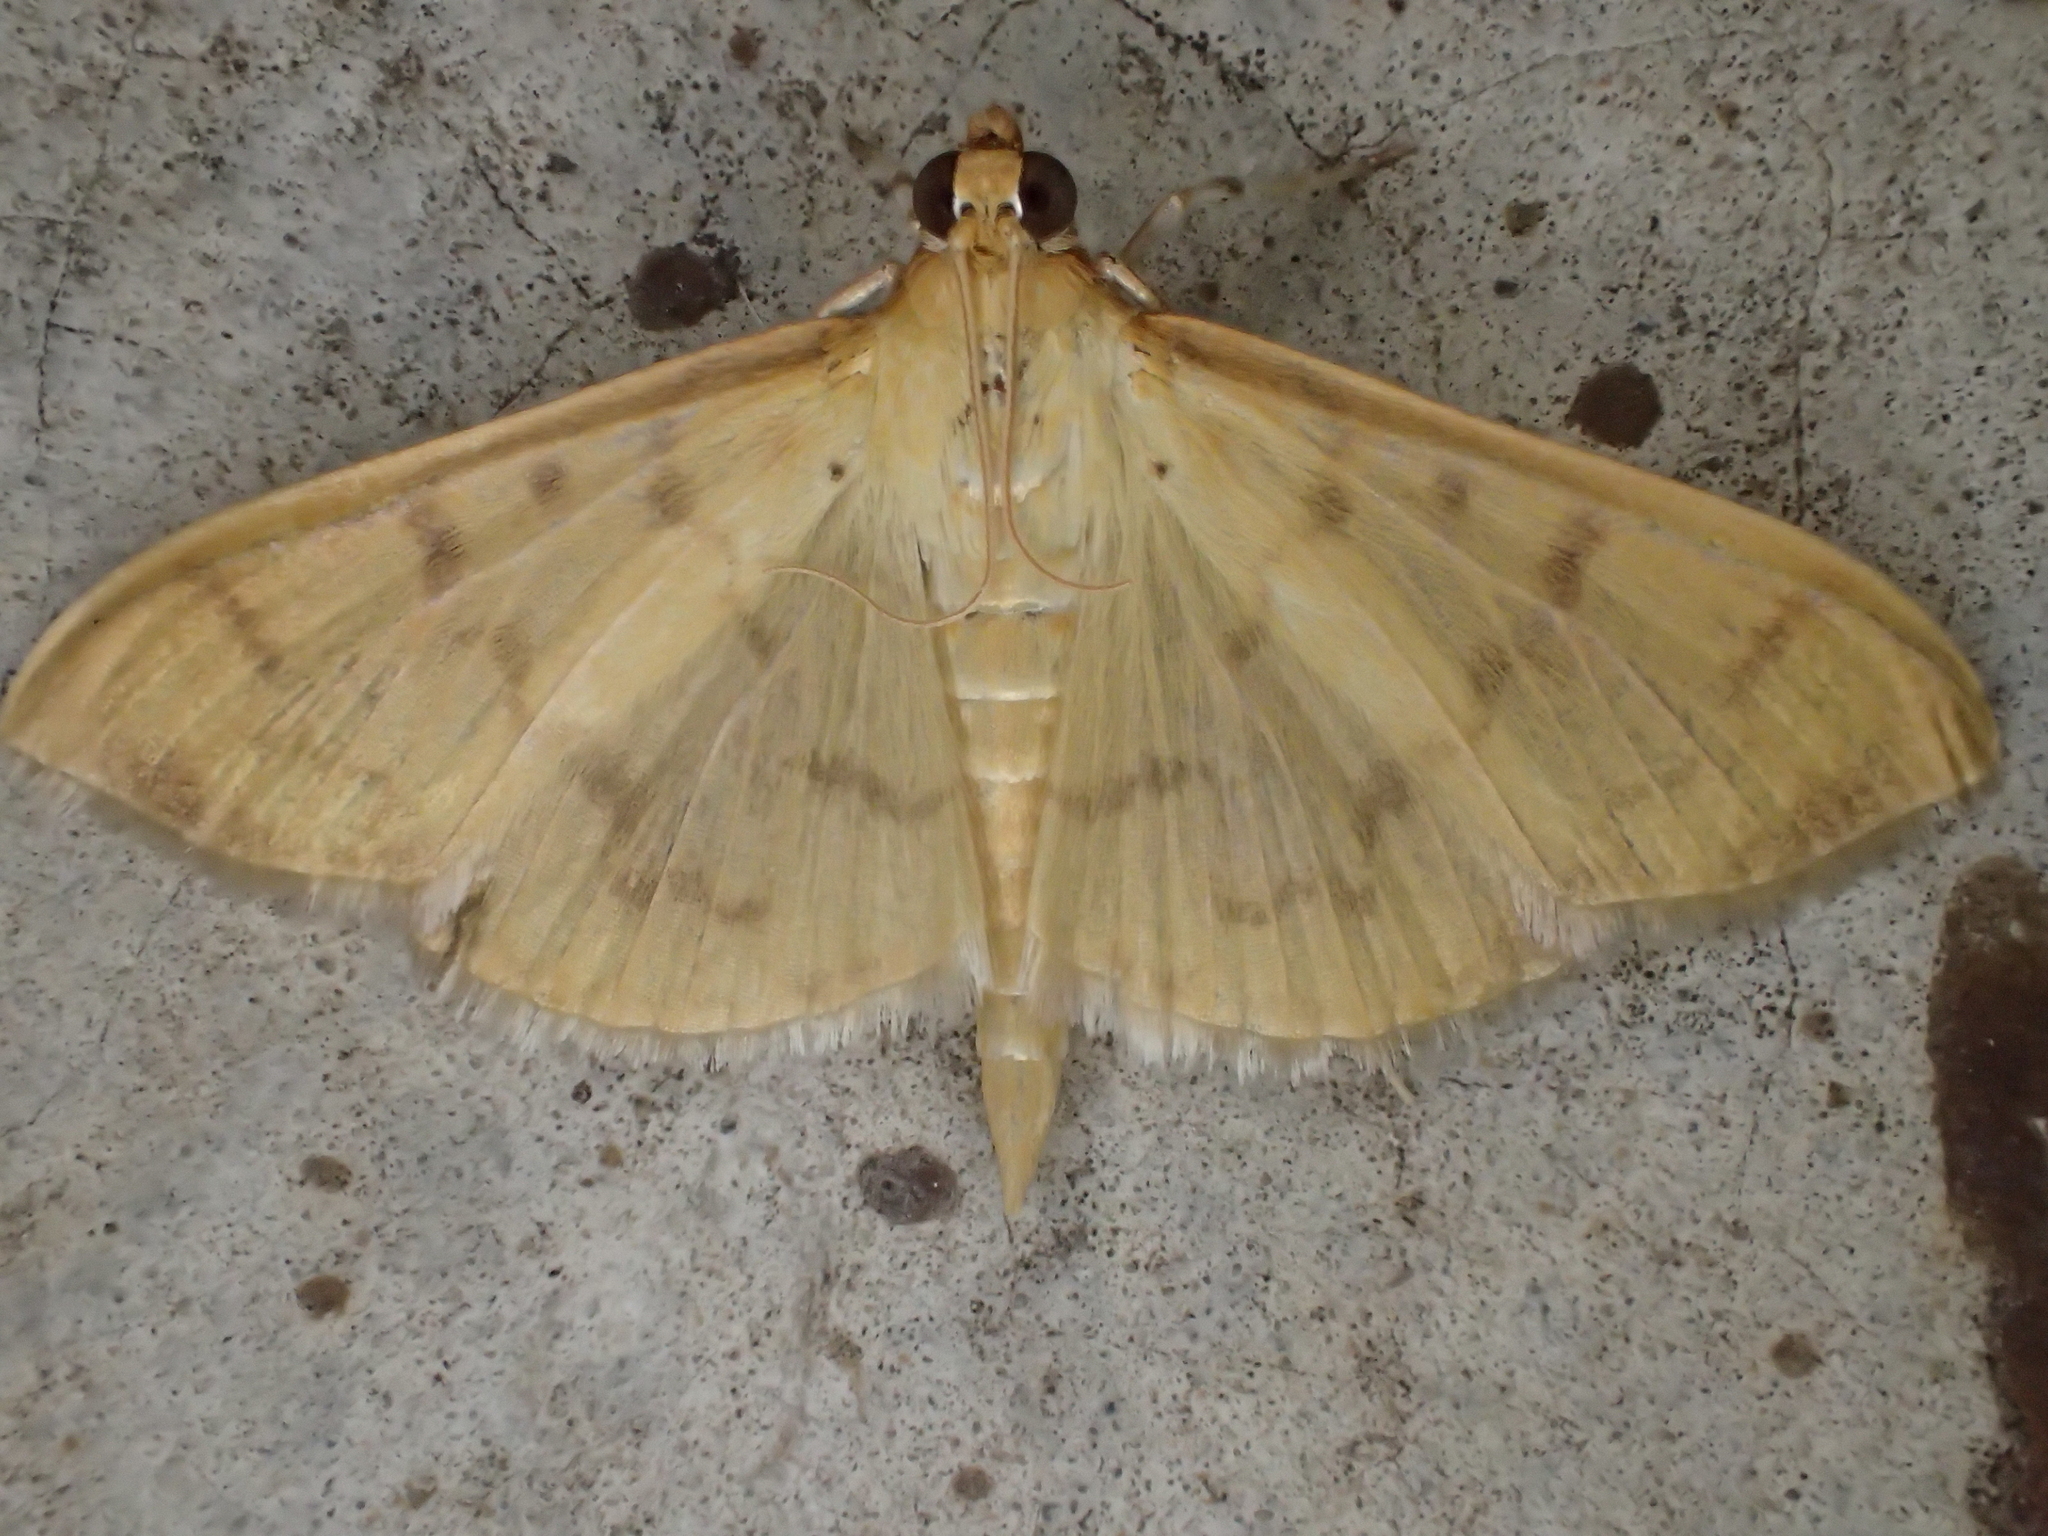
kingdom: Animalia
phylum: Arthropoda
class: Insecta
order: Lepidoptera
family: Crambidae
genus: Pleuroptya
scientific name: Pleuroptya balteata
